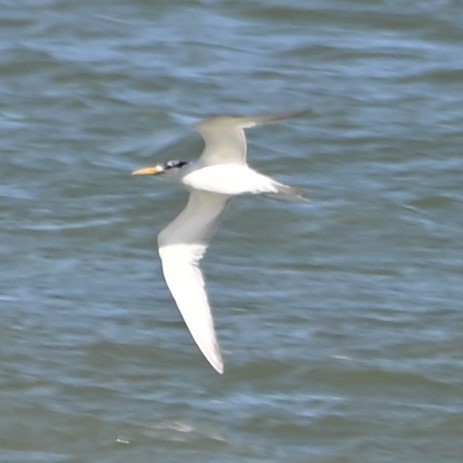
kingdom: Animalia
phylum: Chordata
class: Aves
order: Charadriiformes
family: Laridae
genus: Thalasseus
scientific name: Thalasseus bergii
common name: Greater crested tern
